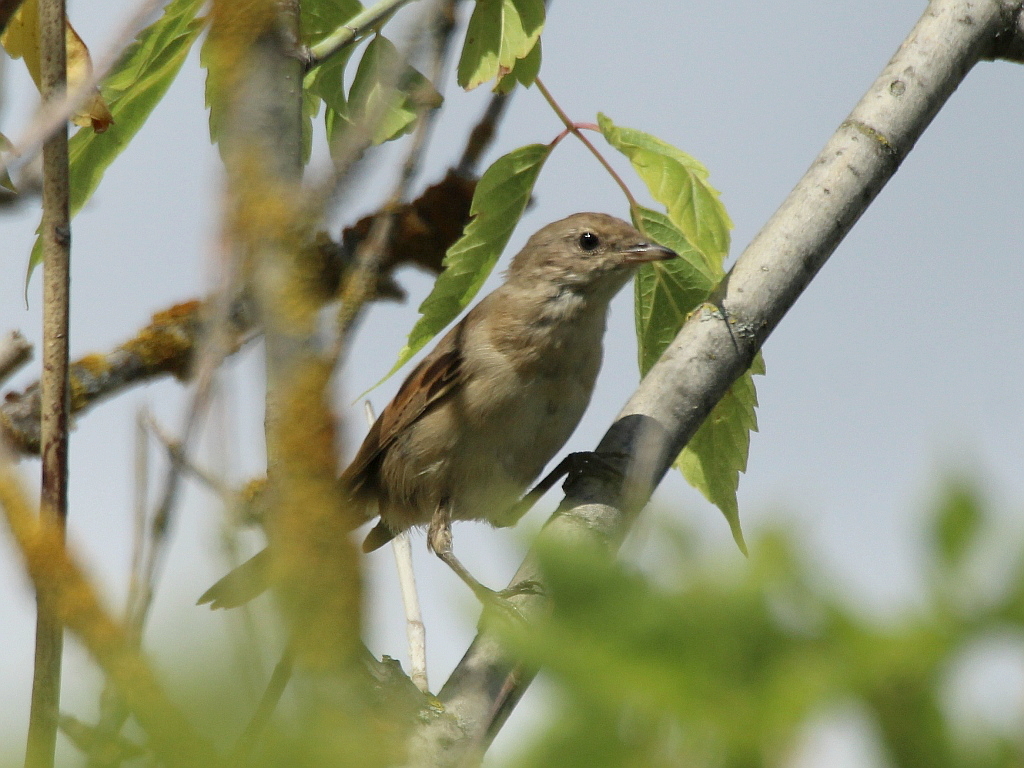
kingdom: Animalia
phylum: Chordata
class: Aves
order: Passeriformes
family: Sylviidae
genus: Sylvia
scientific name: Sylvia communis
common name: Common whitethroat
